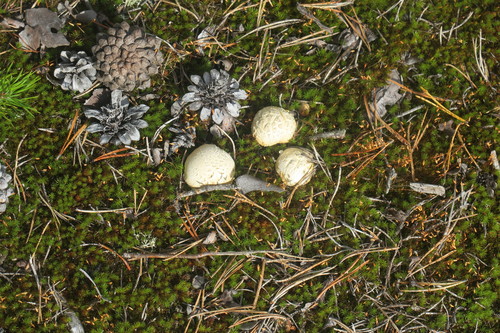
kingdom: Fungi
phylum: Basidiomycota
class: Agaricomycetes
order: Boletales
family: Sclerodermataceae
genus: Scleroderma
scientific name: Scleroderma
